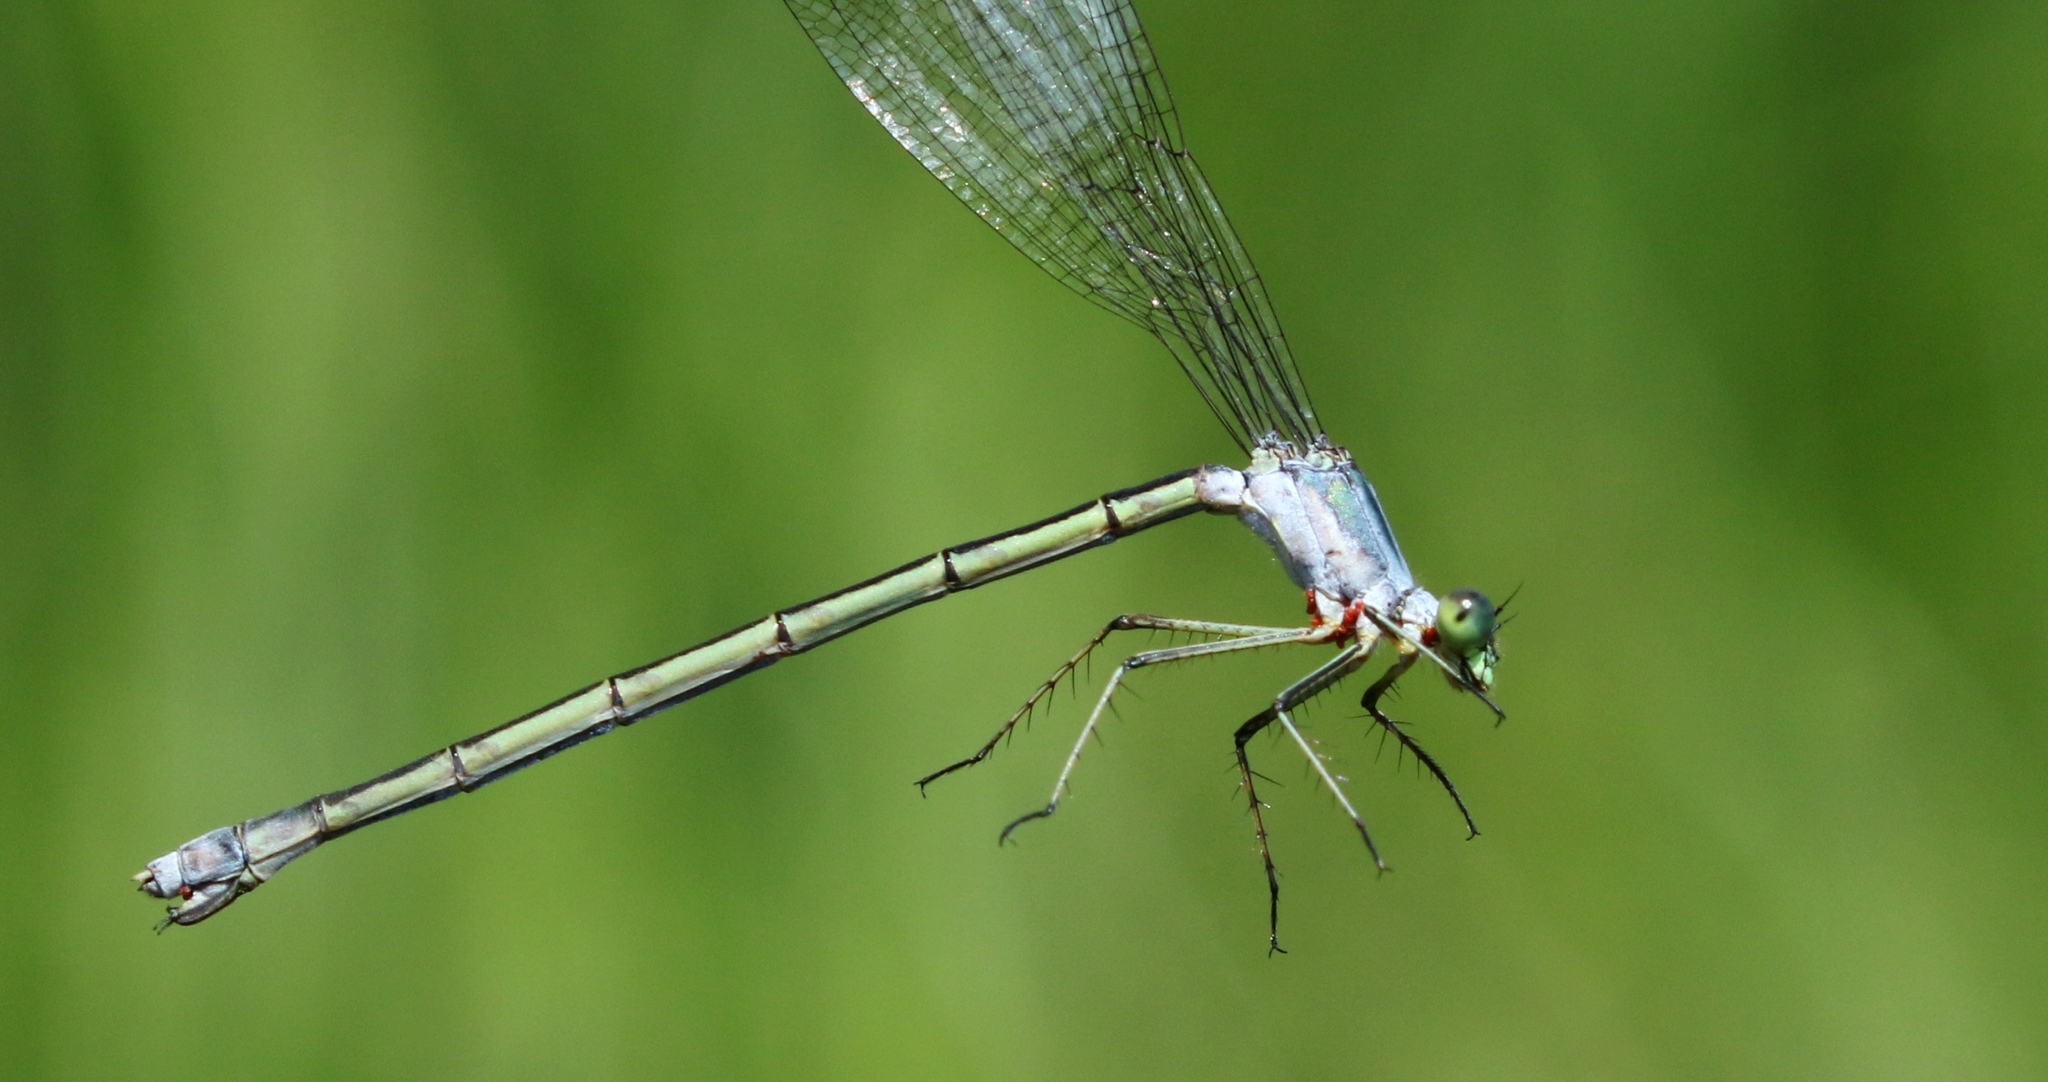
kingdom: Animalia
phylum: Arthropoda
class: Insecta
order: Odonata
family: Lestidae
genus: Lestes
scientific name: Lestes inaequalis
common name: Elegant spreadwing
